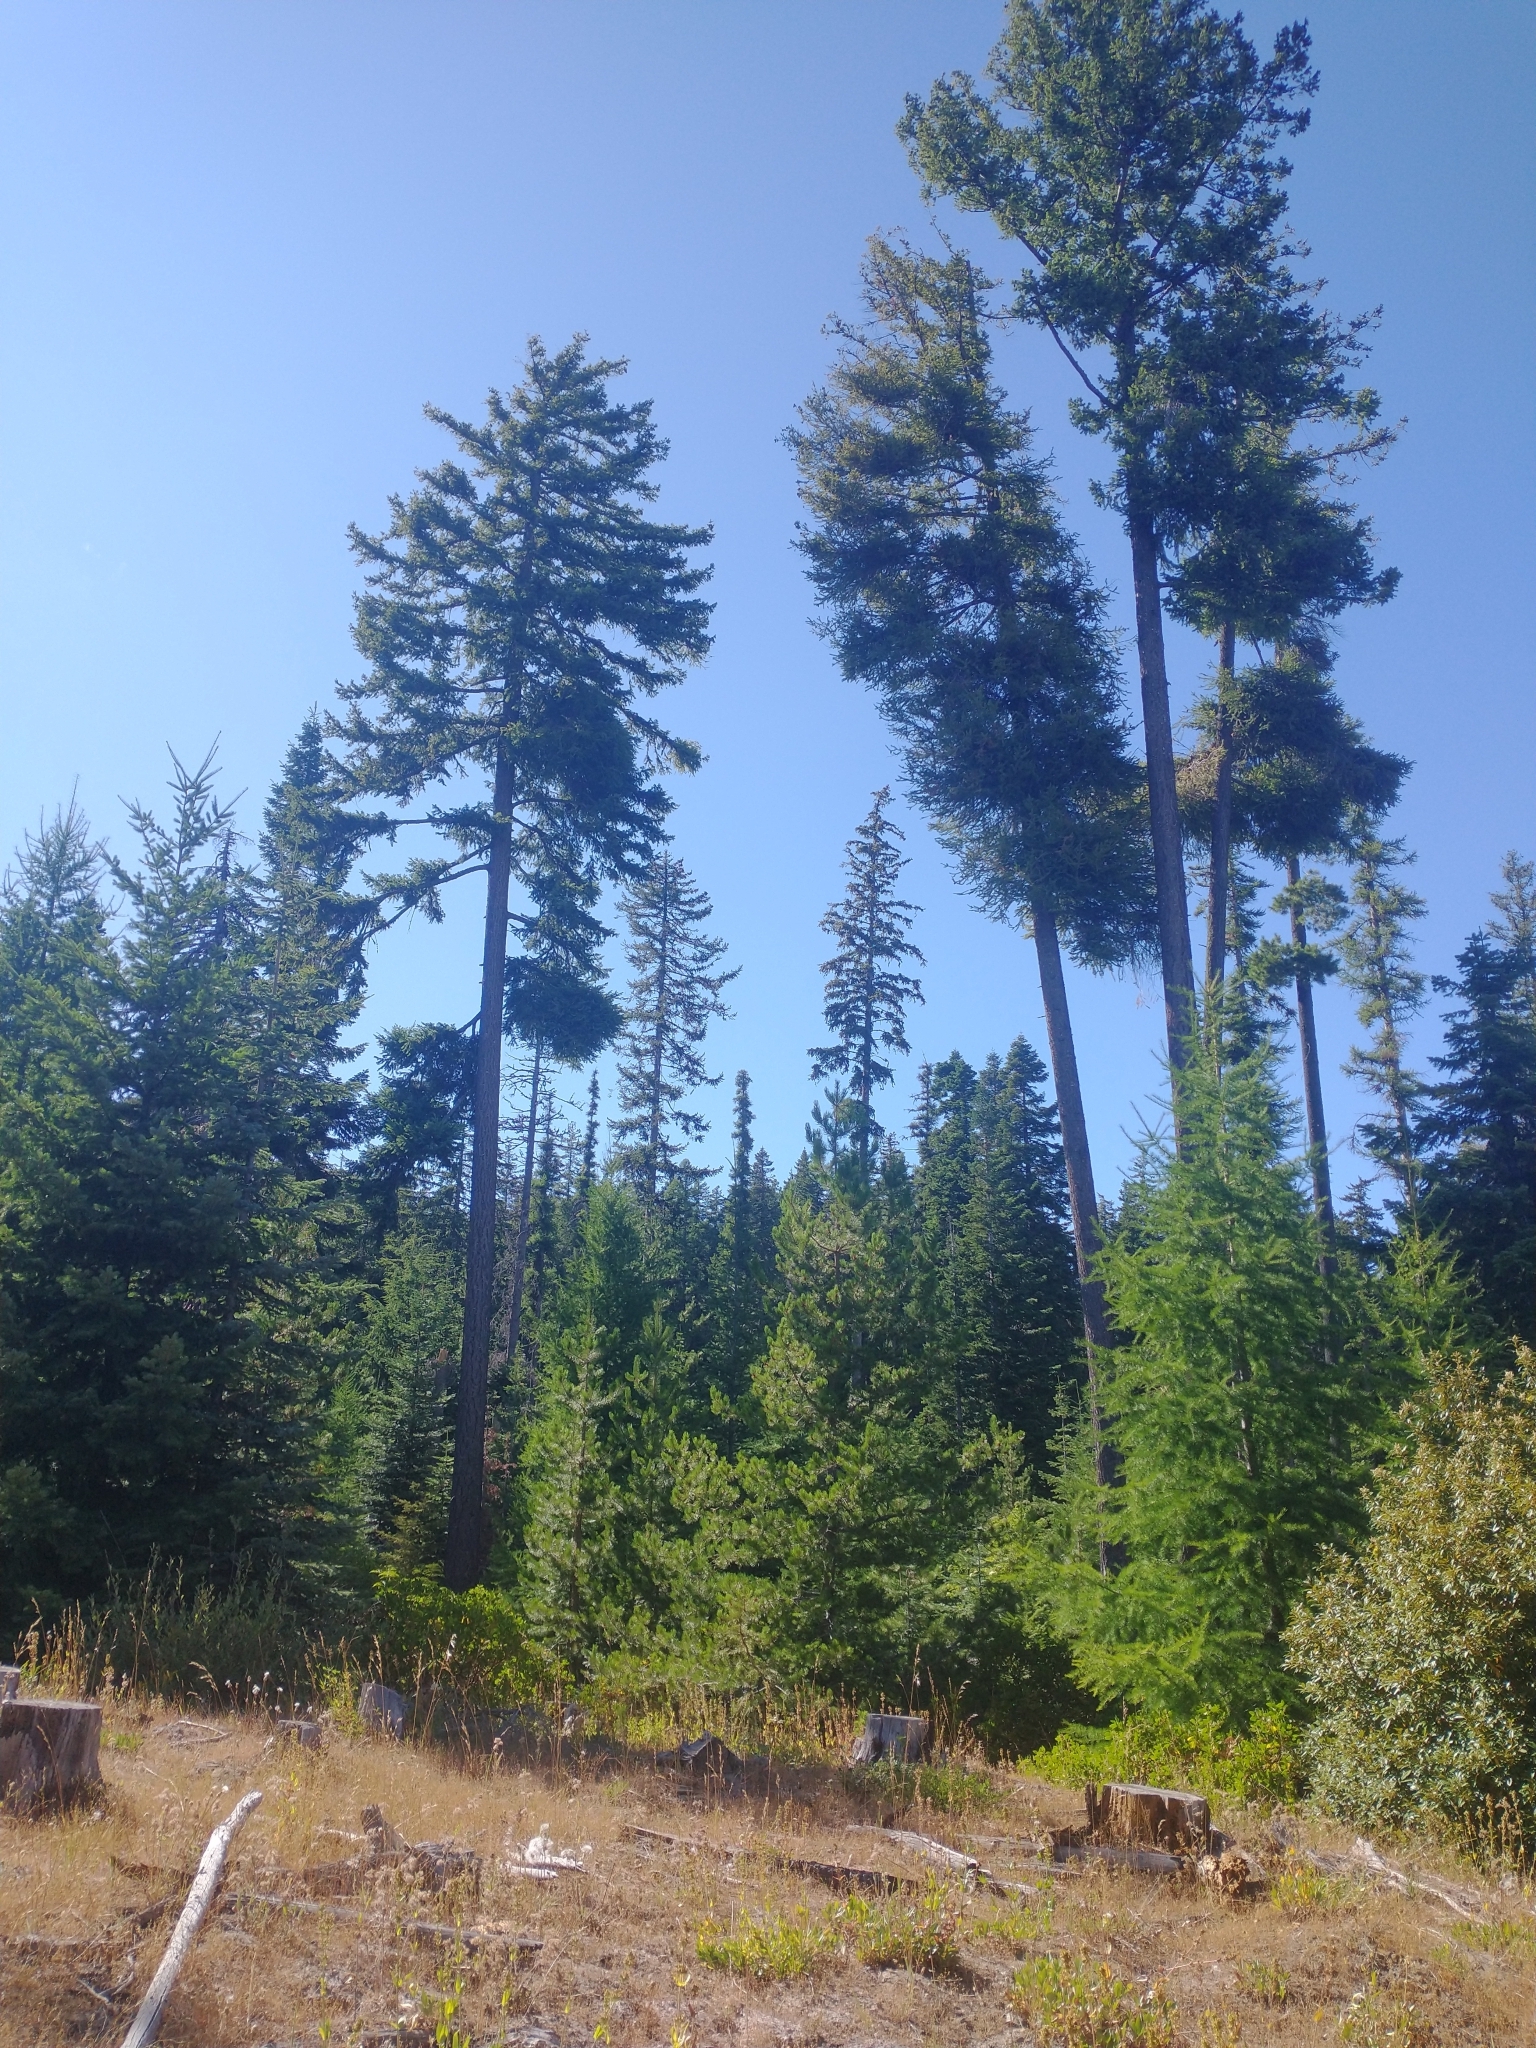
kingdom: Plantae
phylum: Tracheophyta
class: Pinopsida
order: Pinales
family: Pinaceae
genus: Pseudotsuga
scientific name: Pseudotsuga menziesii
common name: Douglas fir
